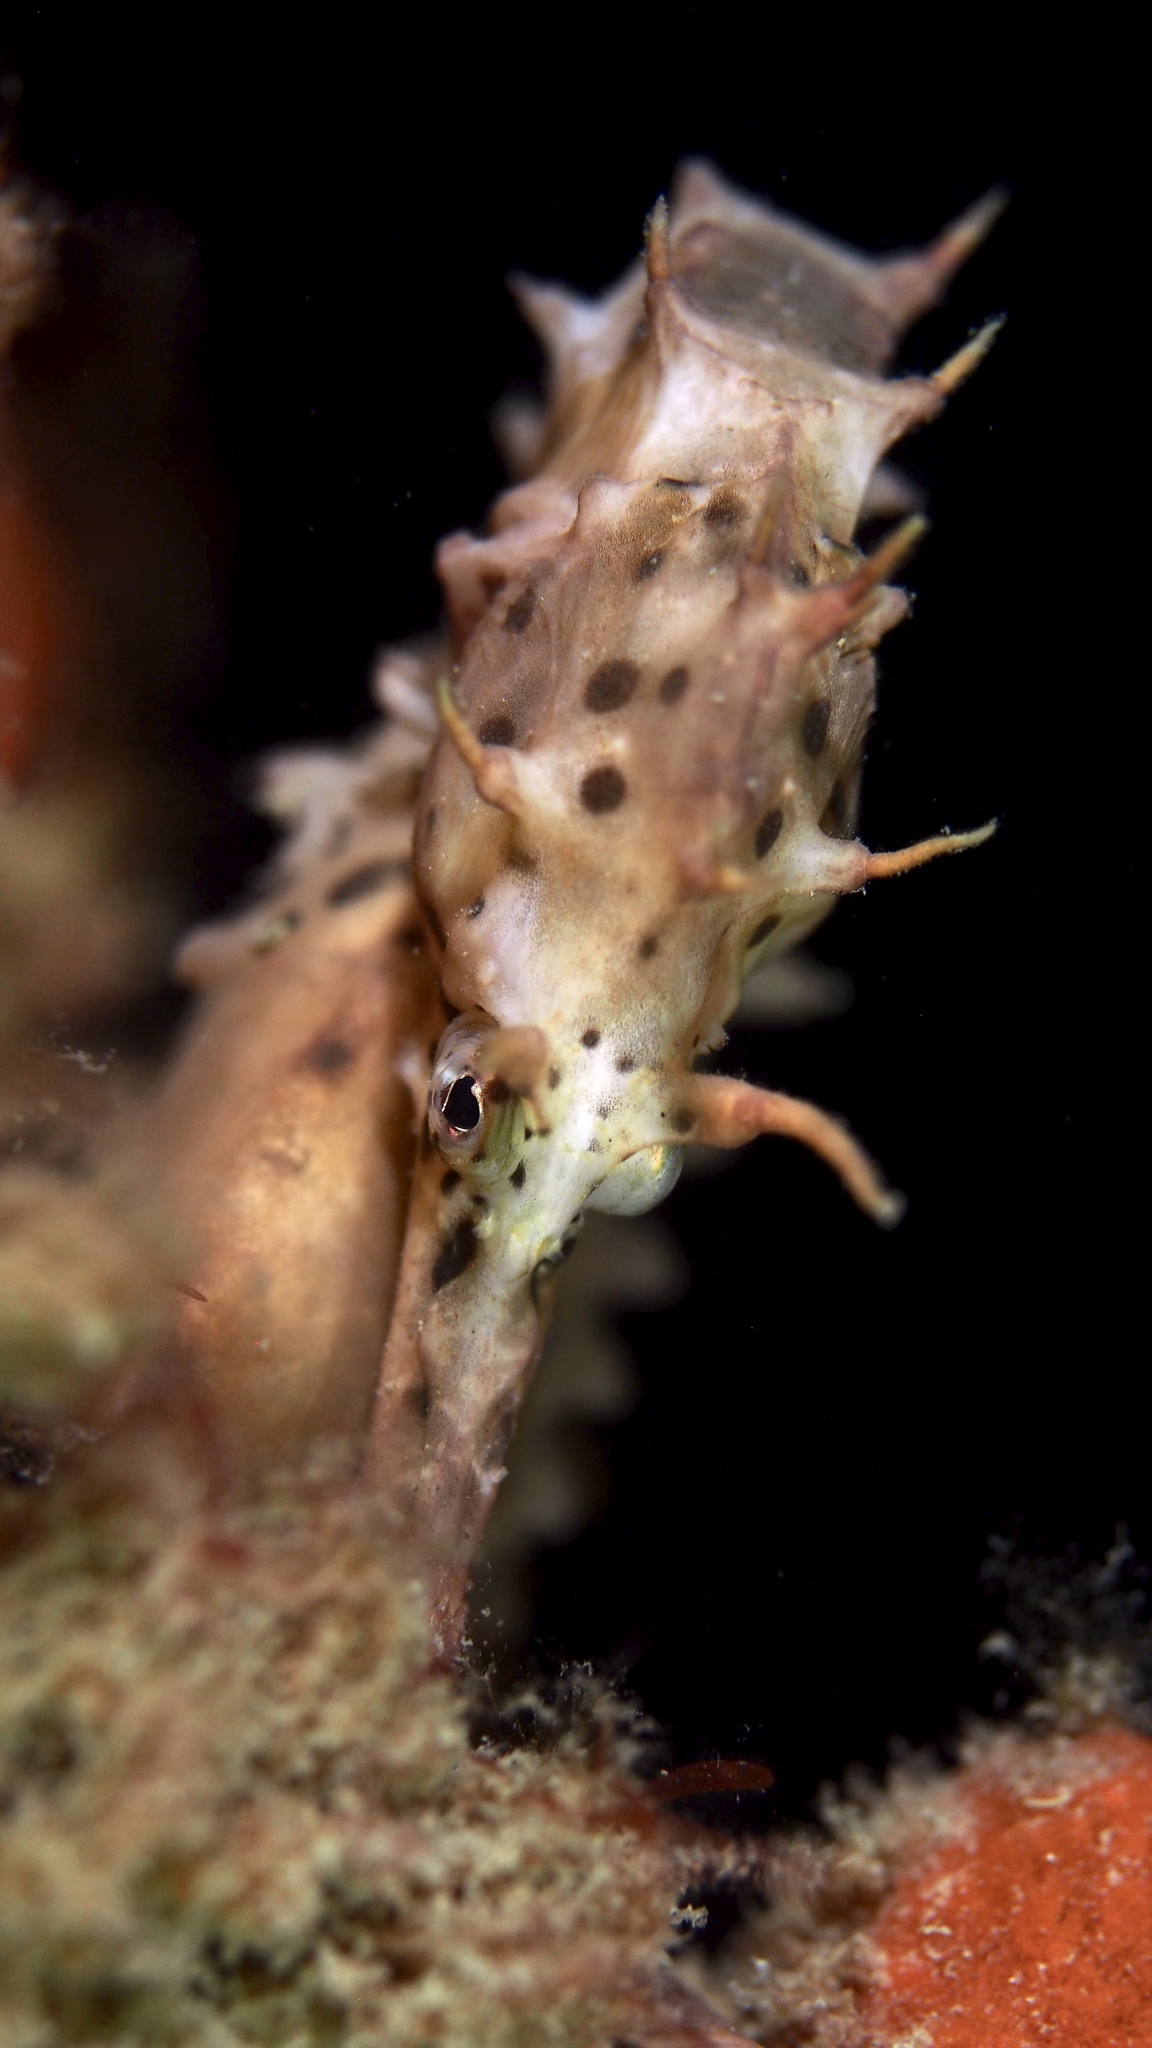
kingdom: Animalia
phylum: Chordata
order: Syngnathiformes
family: Syngnathidae
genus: Hippocampus
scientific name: Hippocampus abdominalis
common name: Big-belly seahorse
